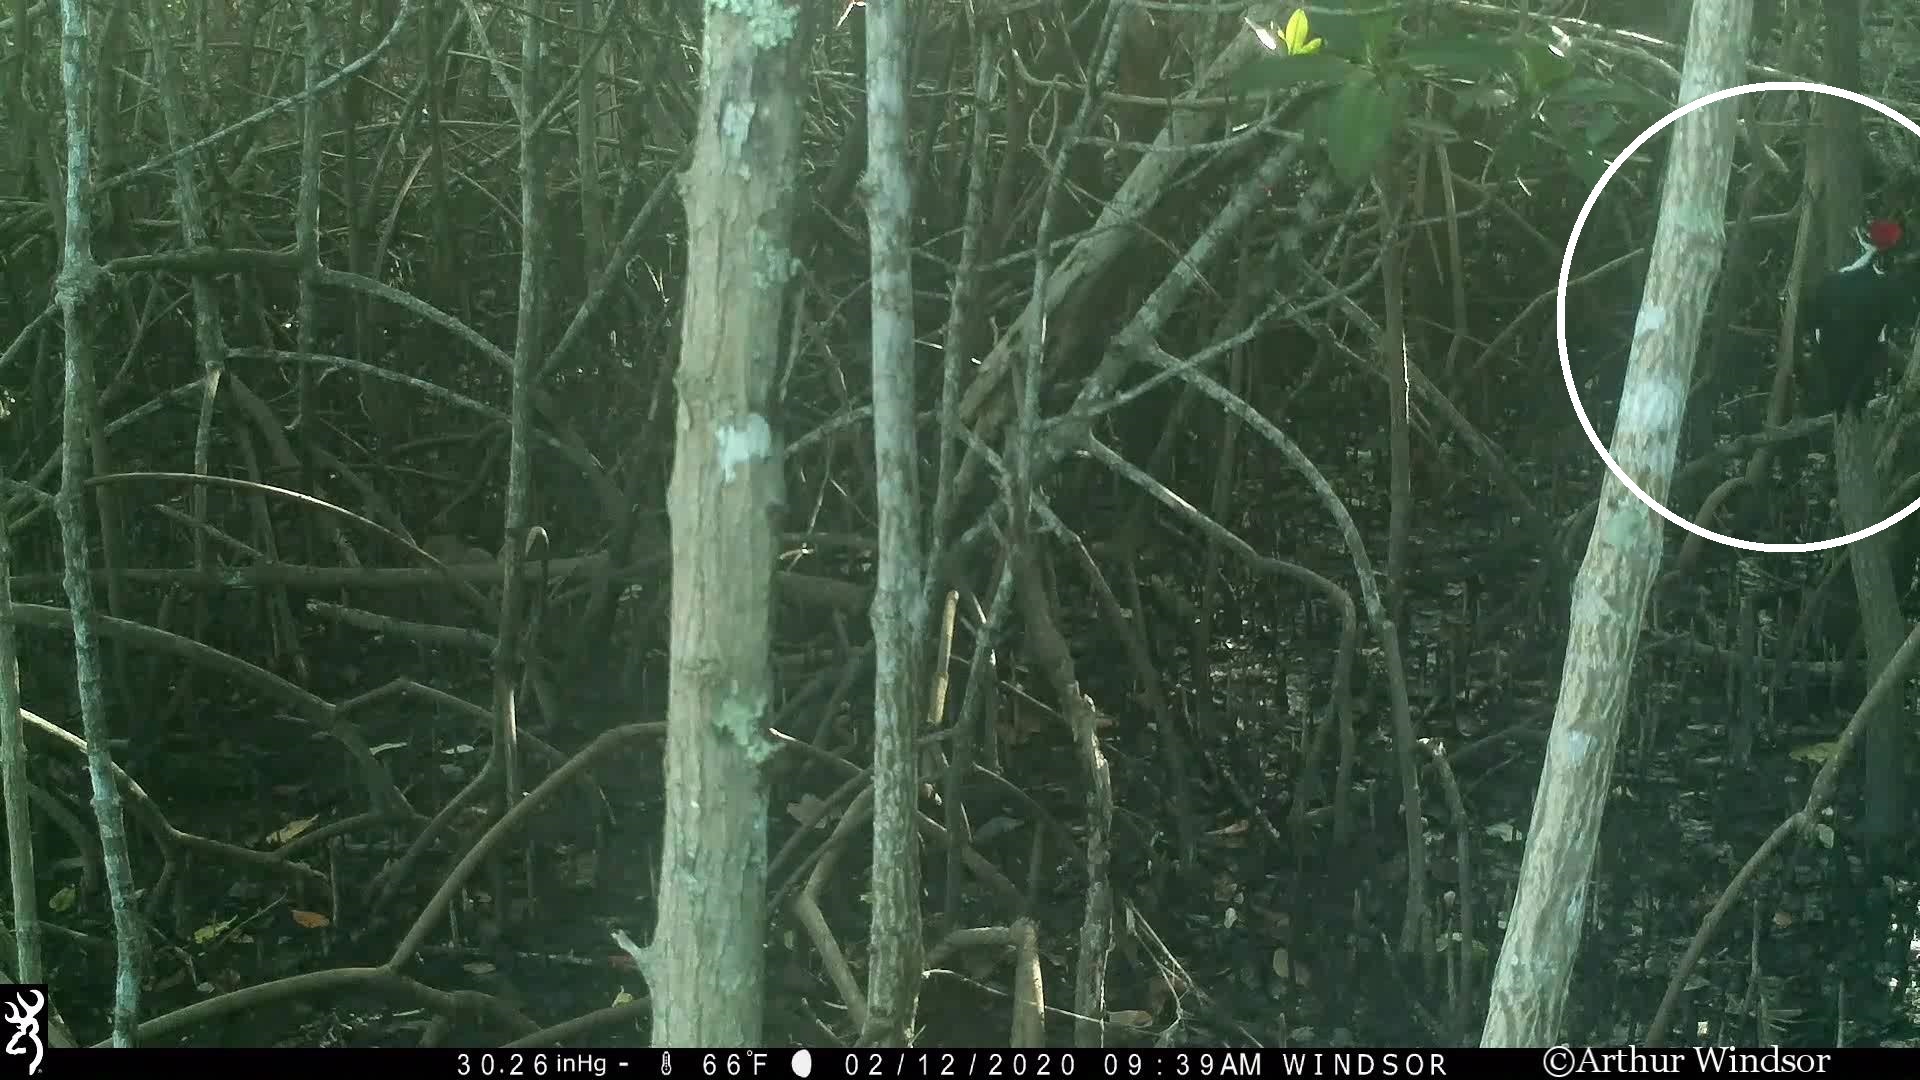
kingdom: Animalia
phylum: Chordata
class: Aves
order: Piciformes
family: Picidae
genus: Dryocopus
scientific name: Dryocopus pileatus
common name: Pileated woodpecker
